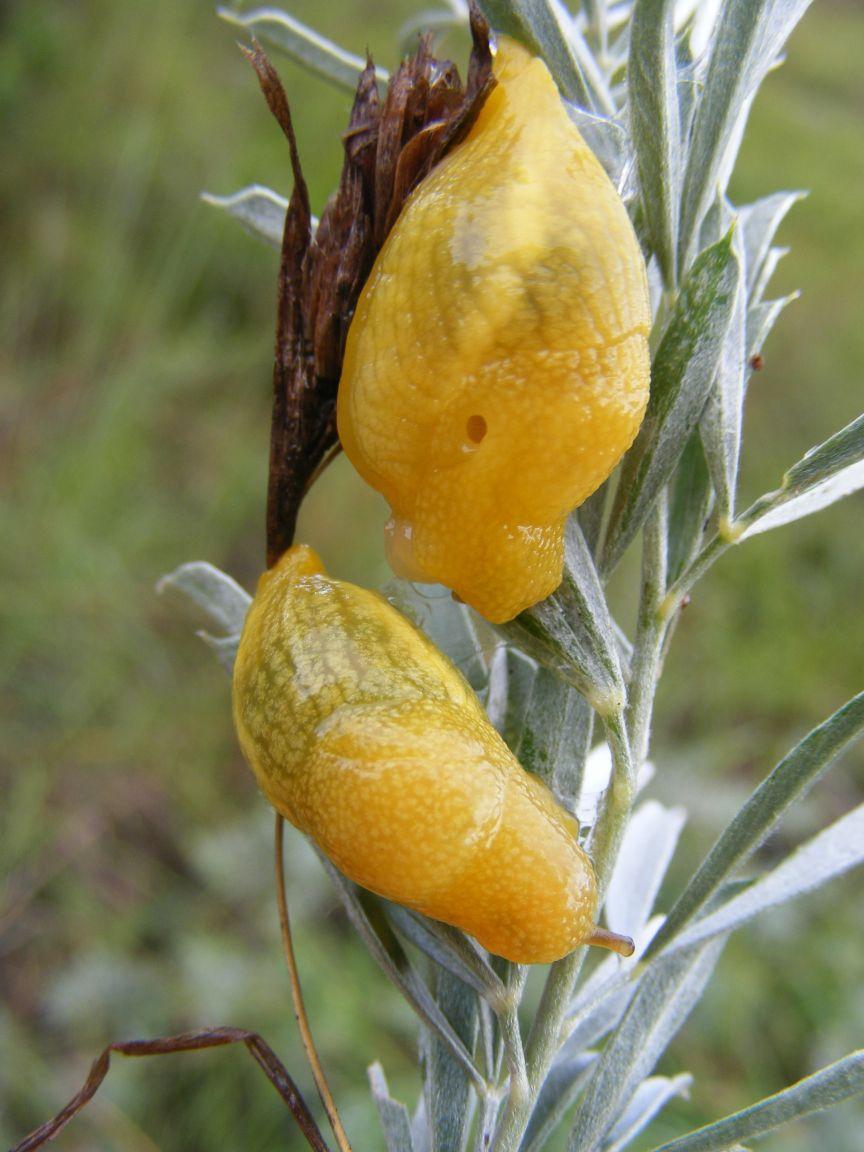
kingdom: Animalia
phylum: Mollusca
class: Gastropoda
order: Stylommatophora
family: Urocyclidae
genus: Elisolimax
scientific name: Elisolimax flavescens
